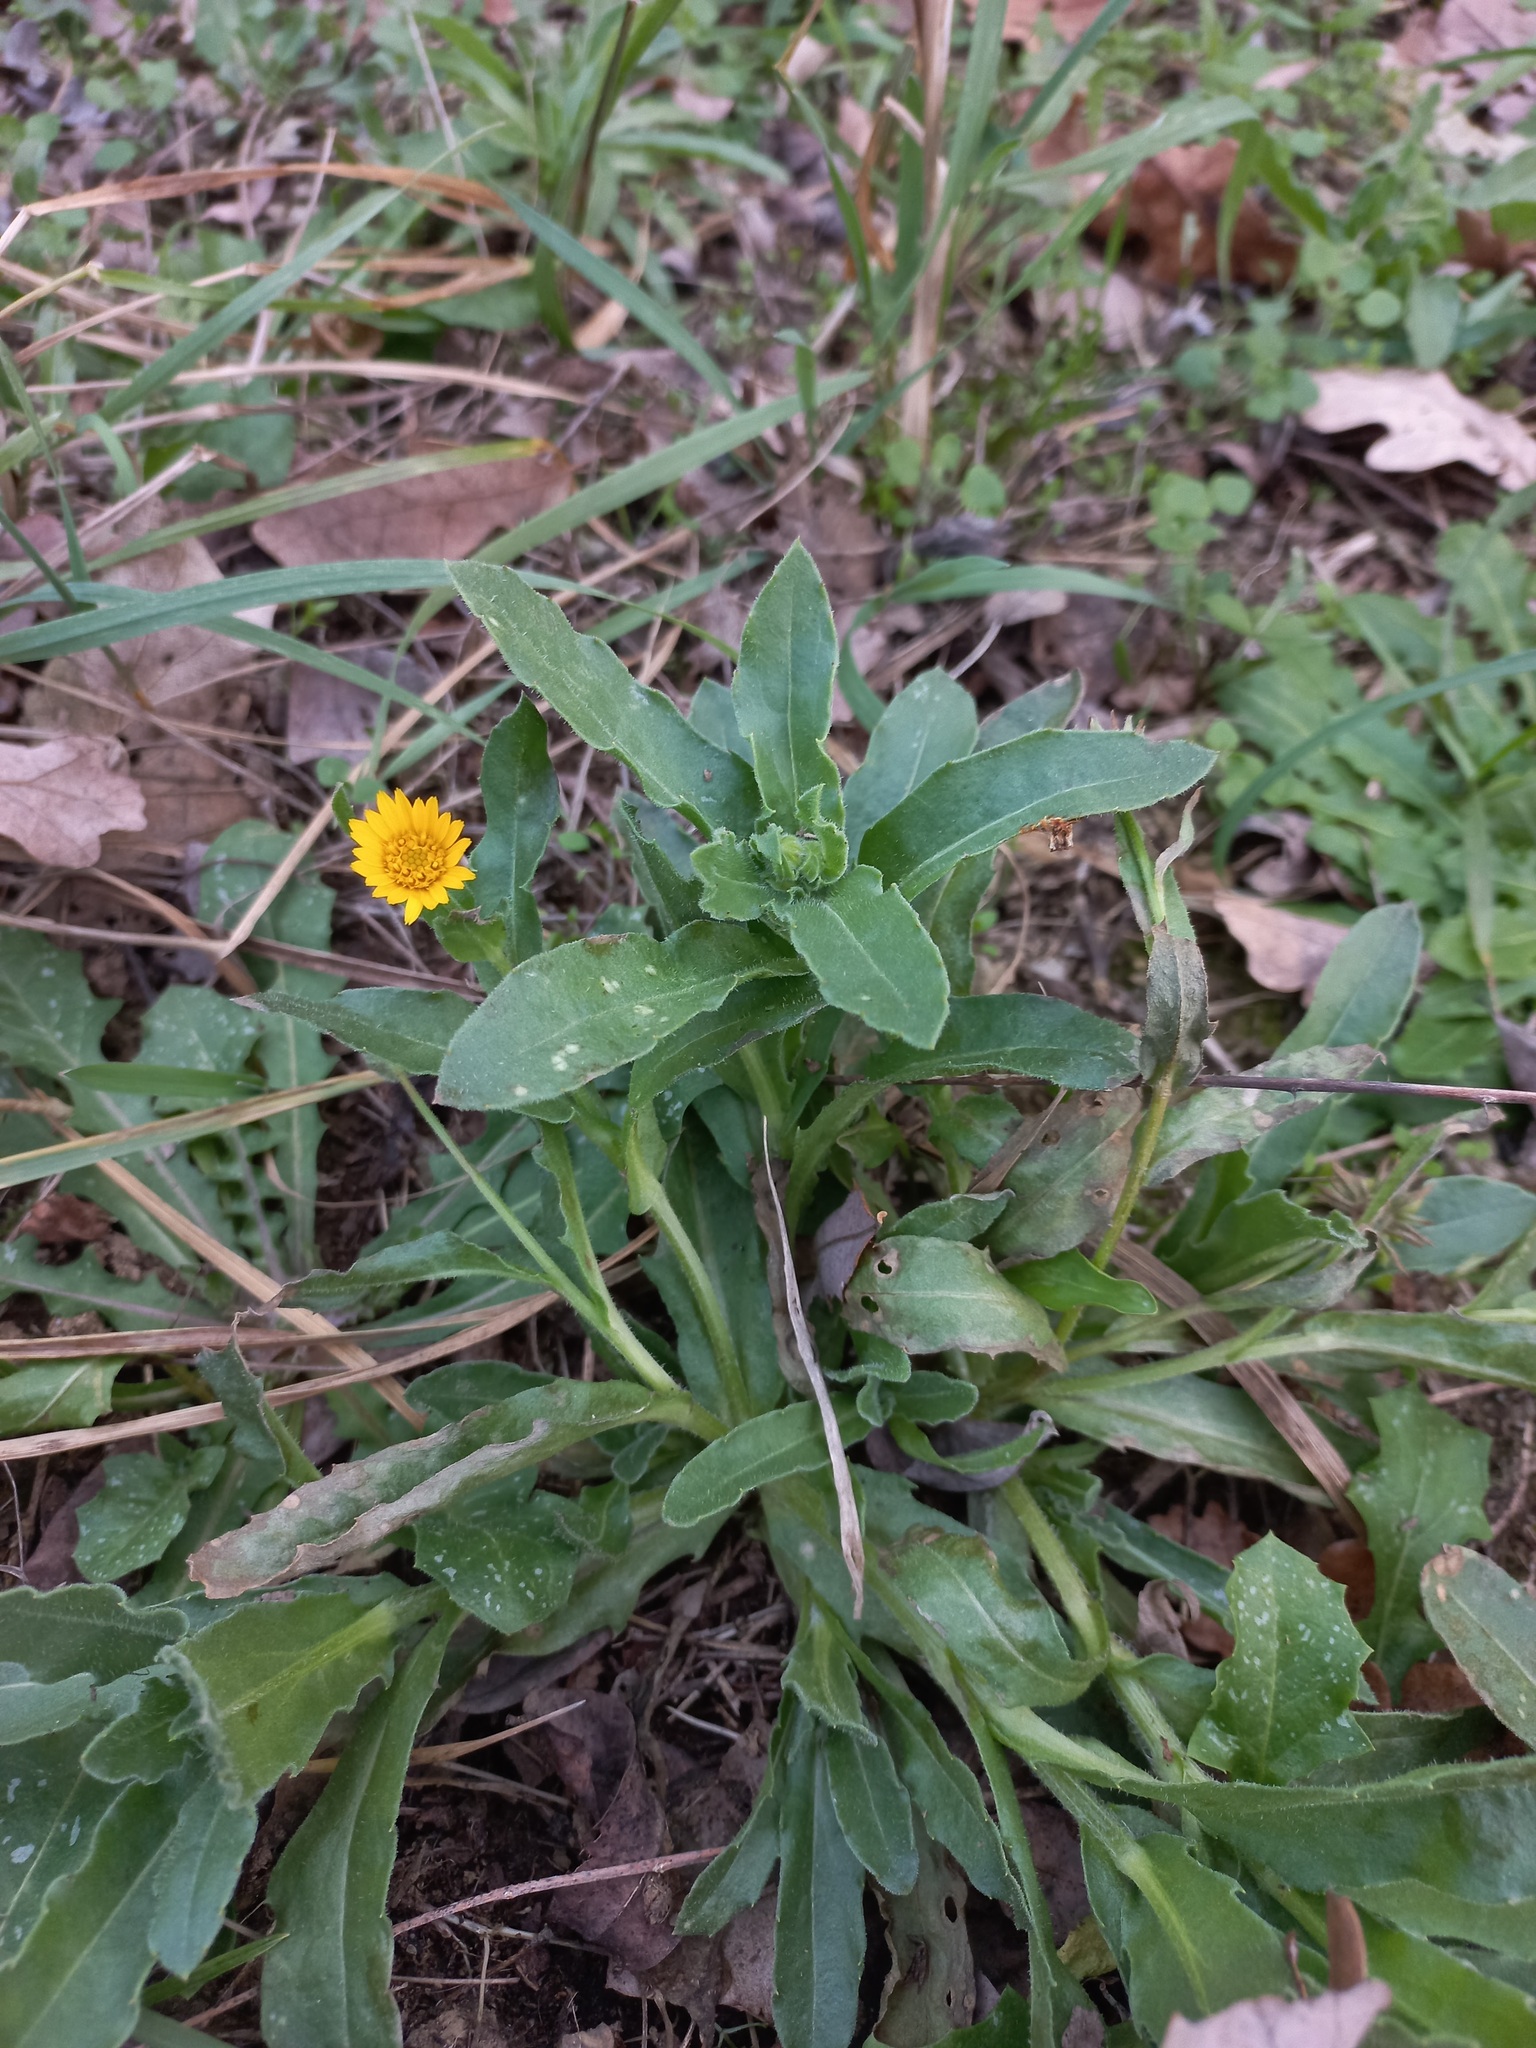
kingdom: Plantae
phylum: Tracheophyta
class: Magnoliopsida
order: Asterales
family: Asteraceae
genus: Calendula
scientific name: Calendula arvensis
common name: Field marigold
